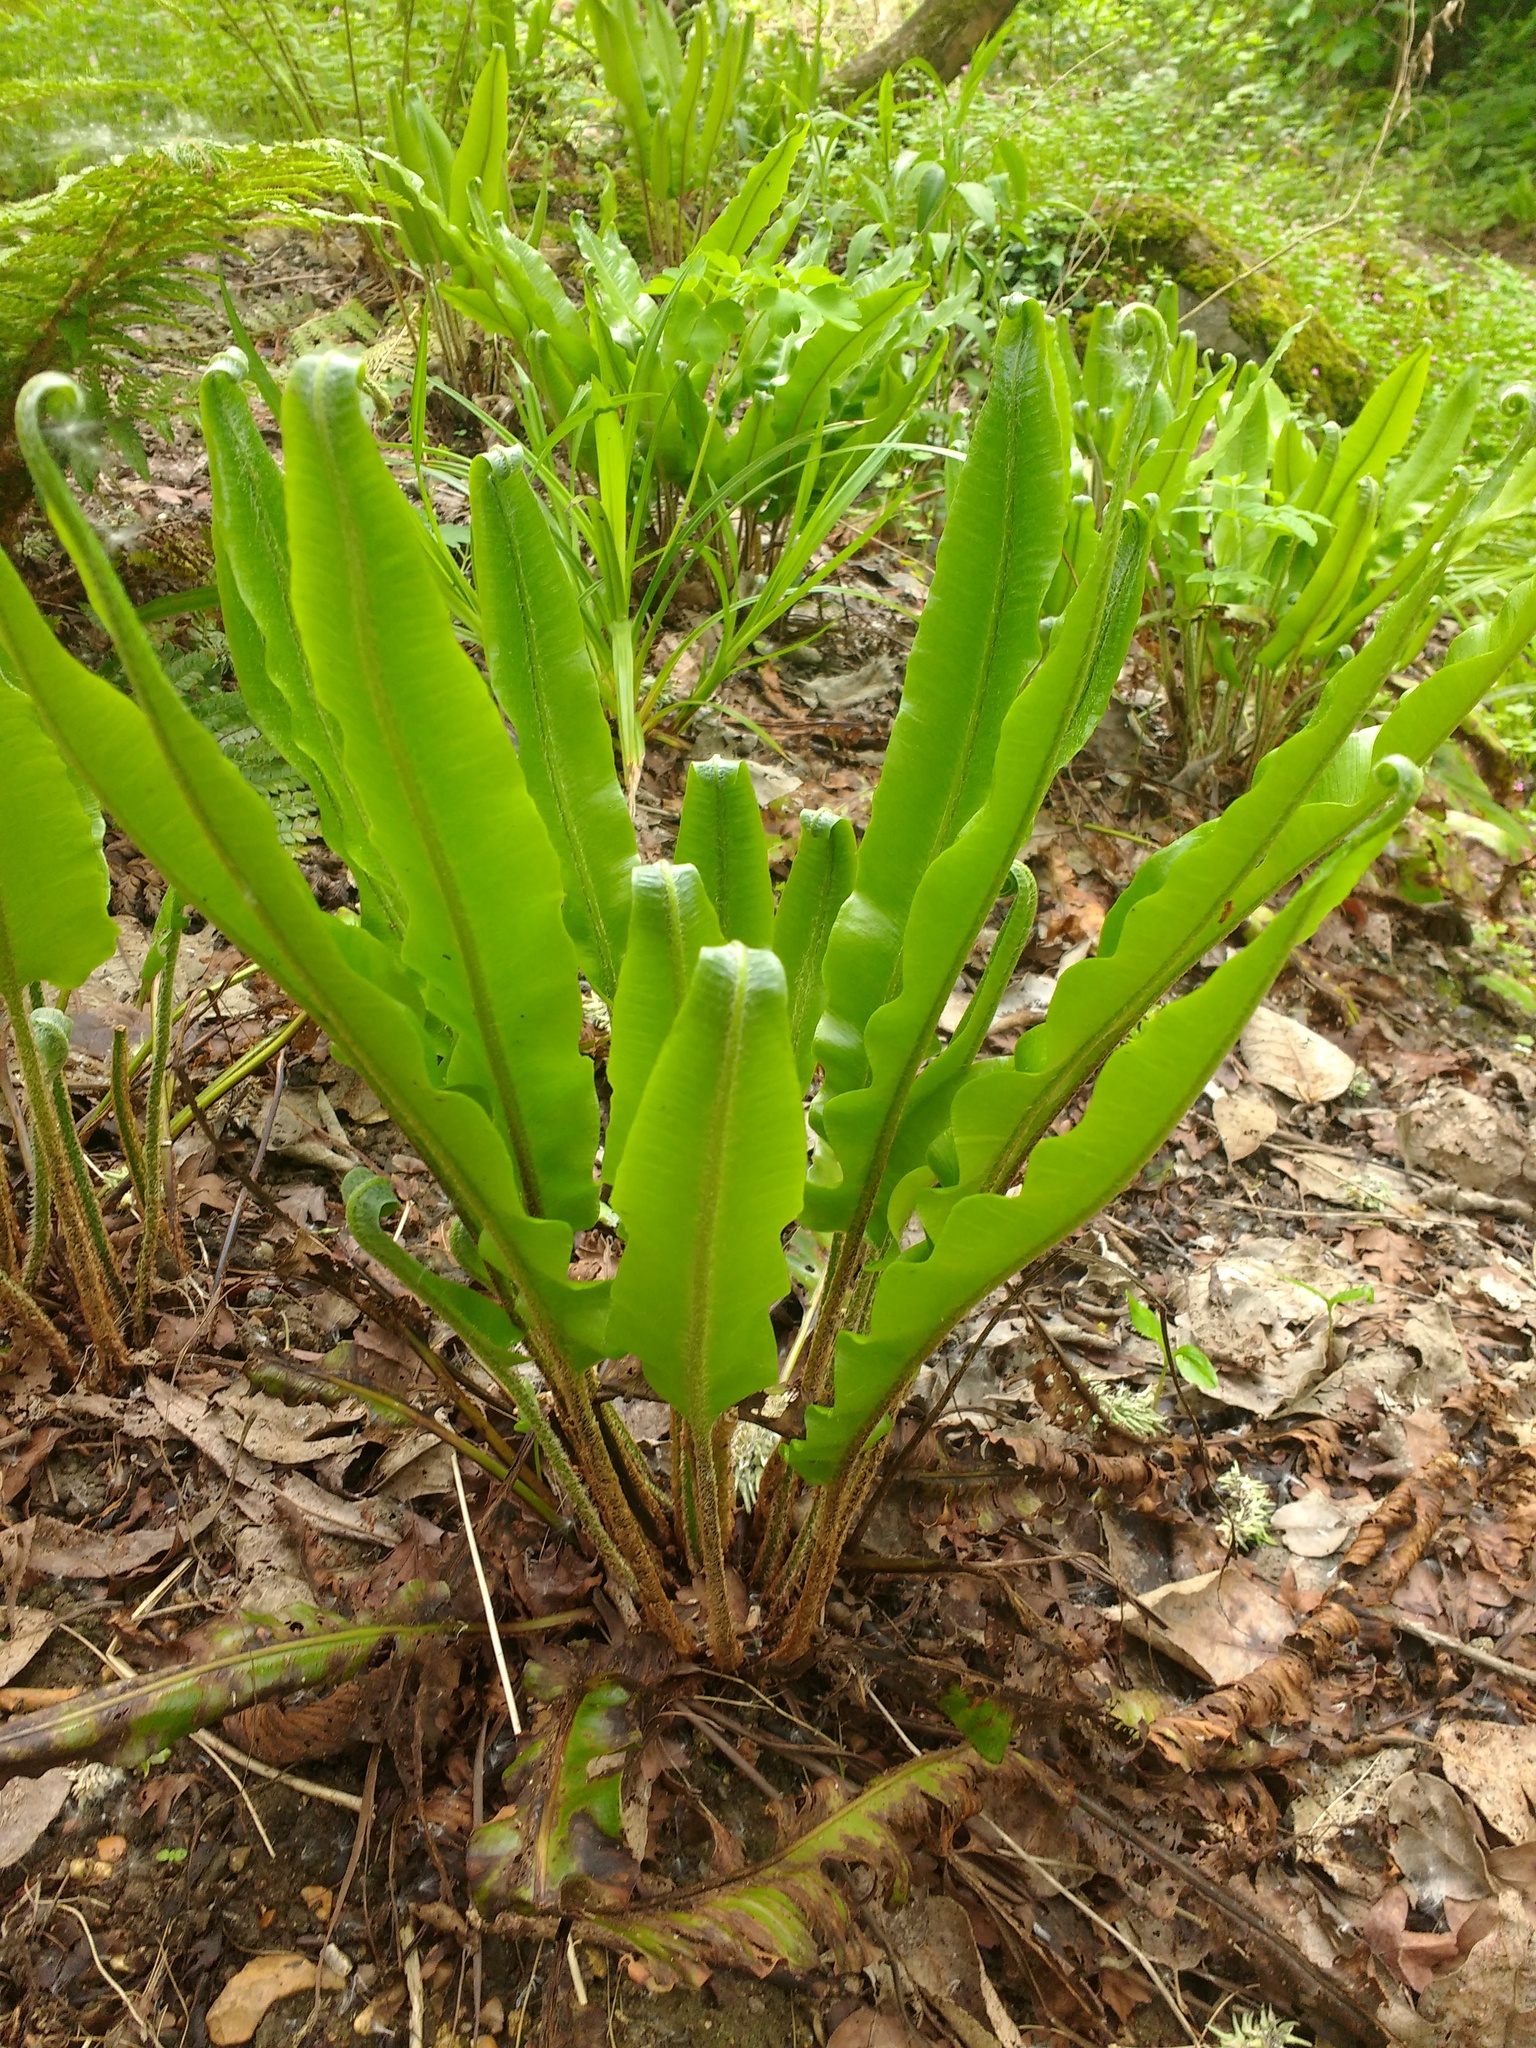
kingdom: Plantae
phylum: Tracheophyta
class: Polypodiopsida
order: Polypodiales
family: Aspleniaceae
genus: Asplenium
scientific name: Asplenium scolopendrium
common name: Hart's-tongue fern
